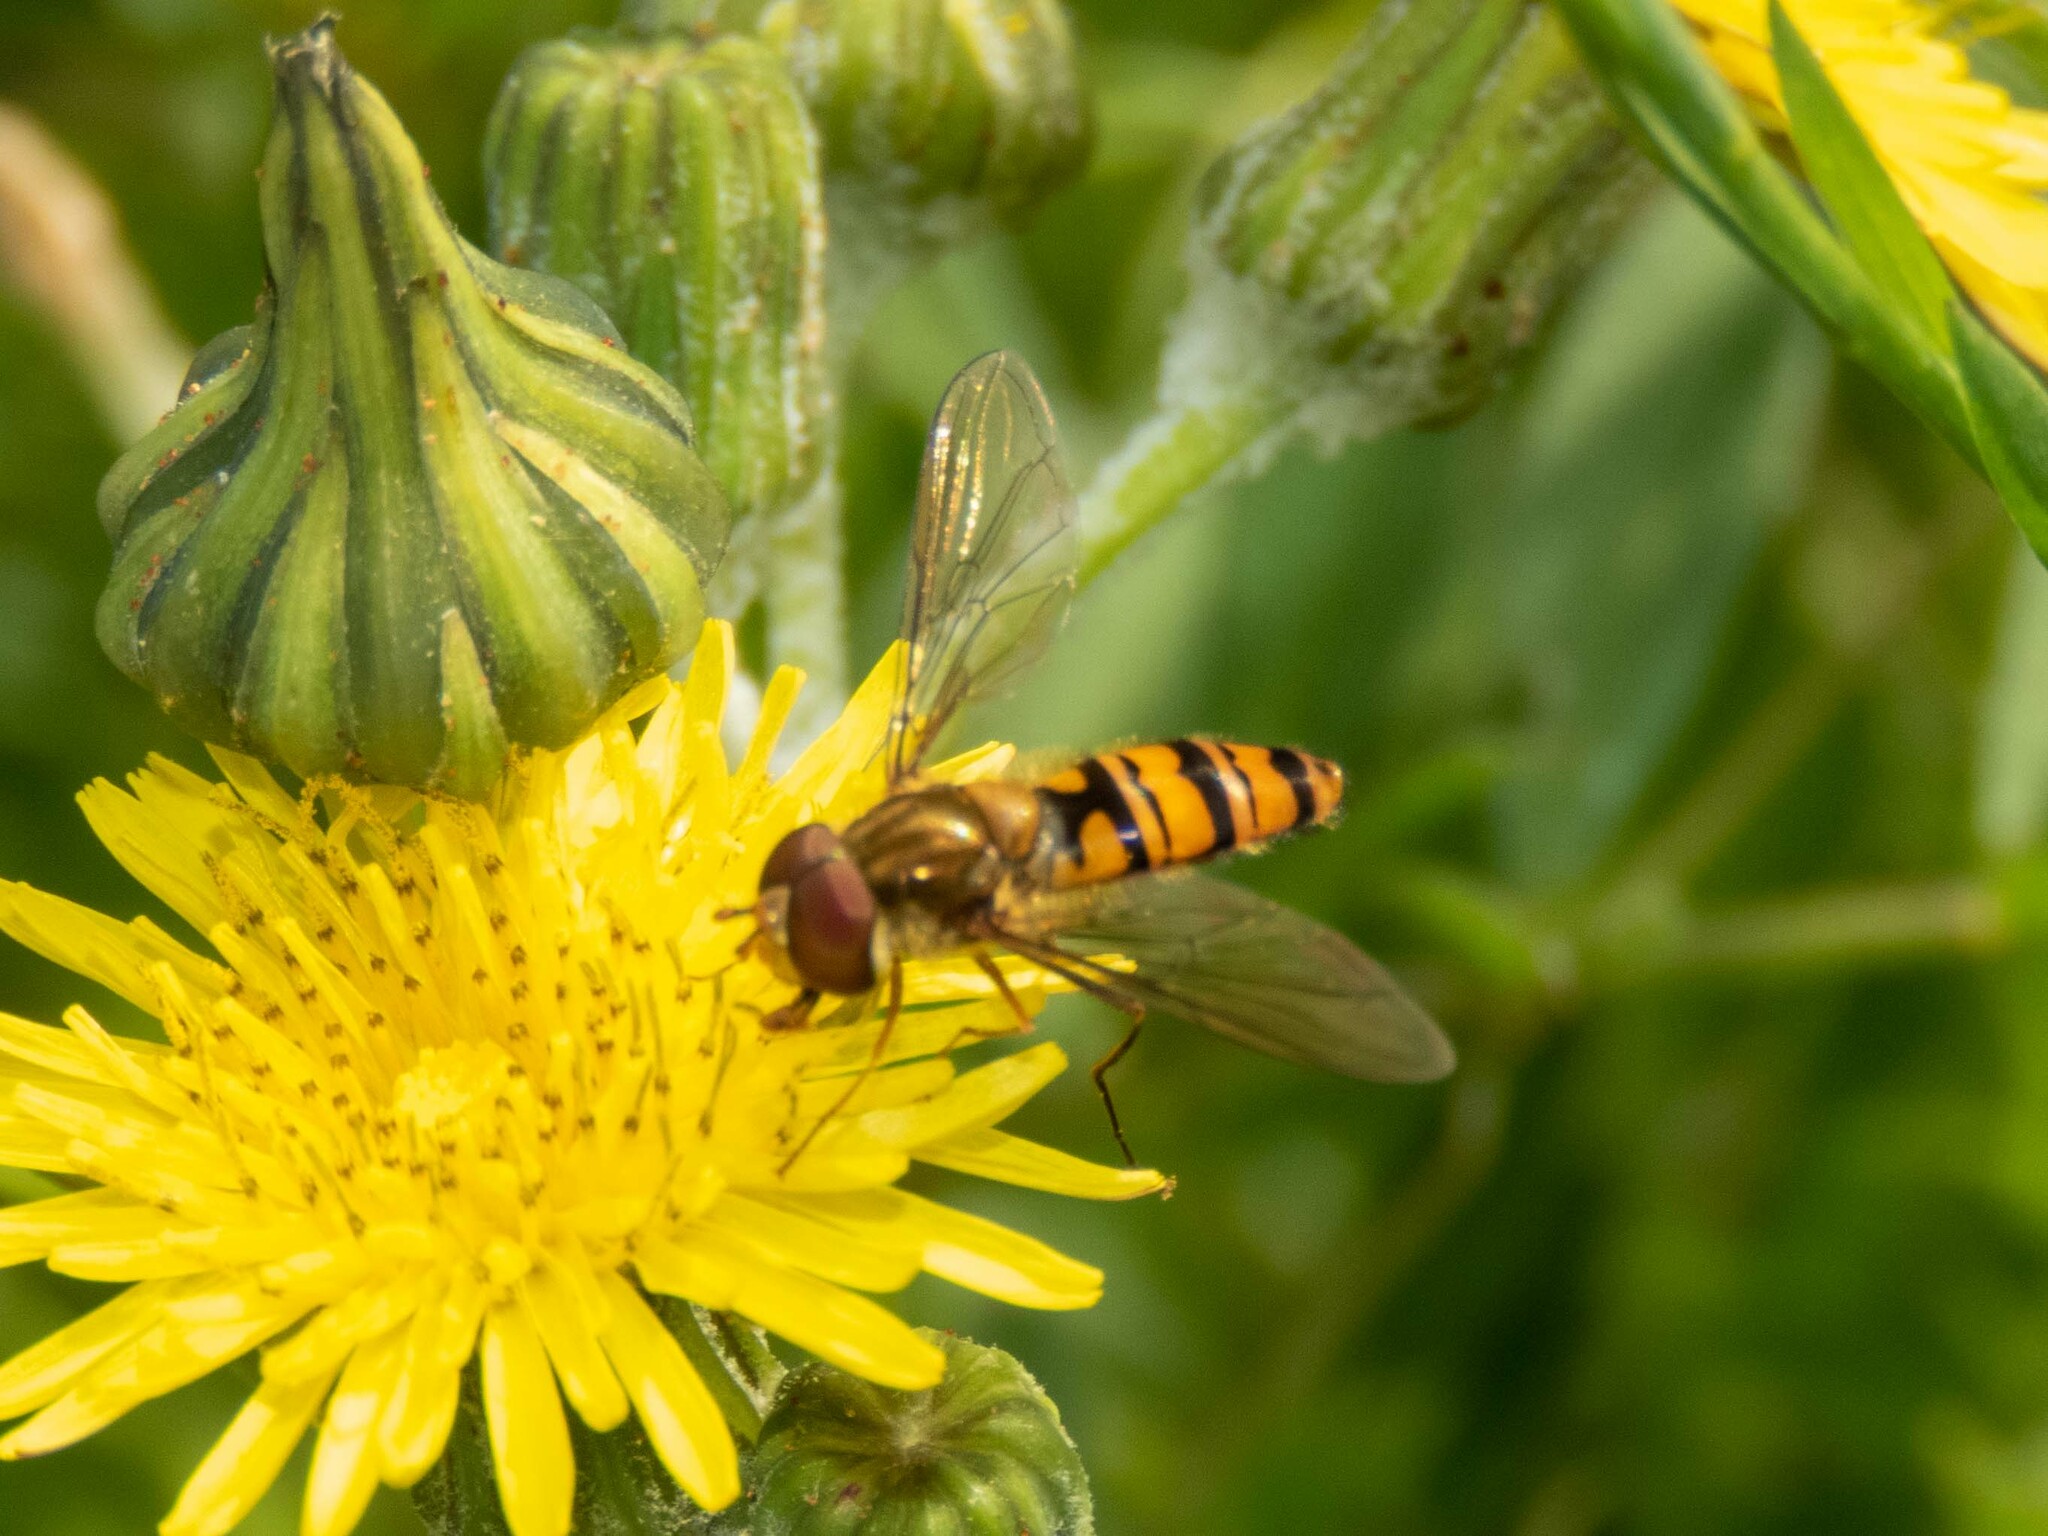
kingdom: Animalia
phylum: Arthropoda
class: Insecta
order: Diptera
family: Syrphidae
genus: Episyrphus
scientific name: Episyrphus balteatus
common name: Marmalade hoverfly
